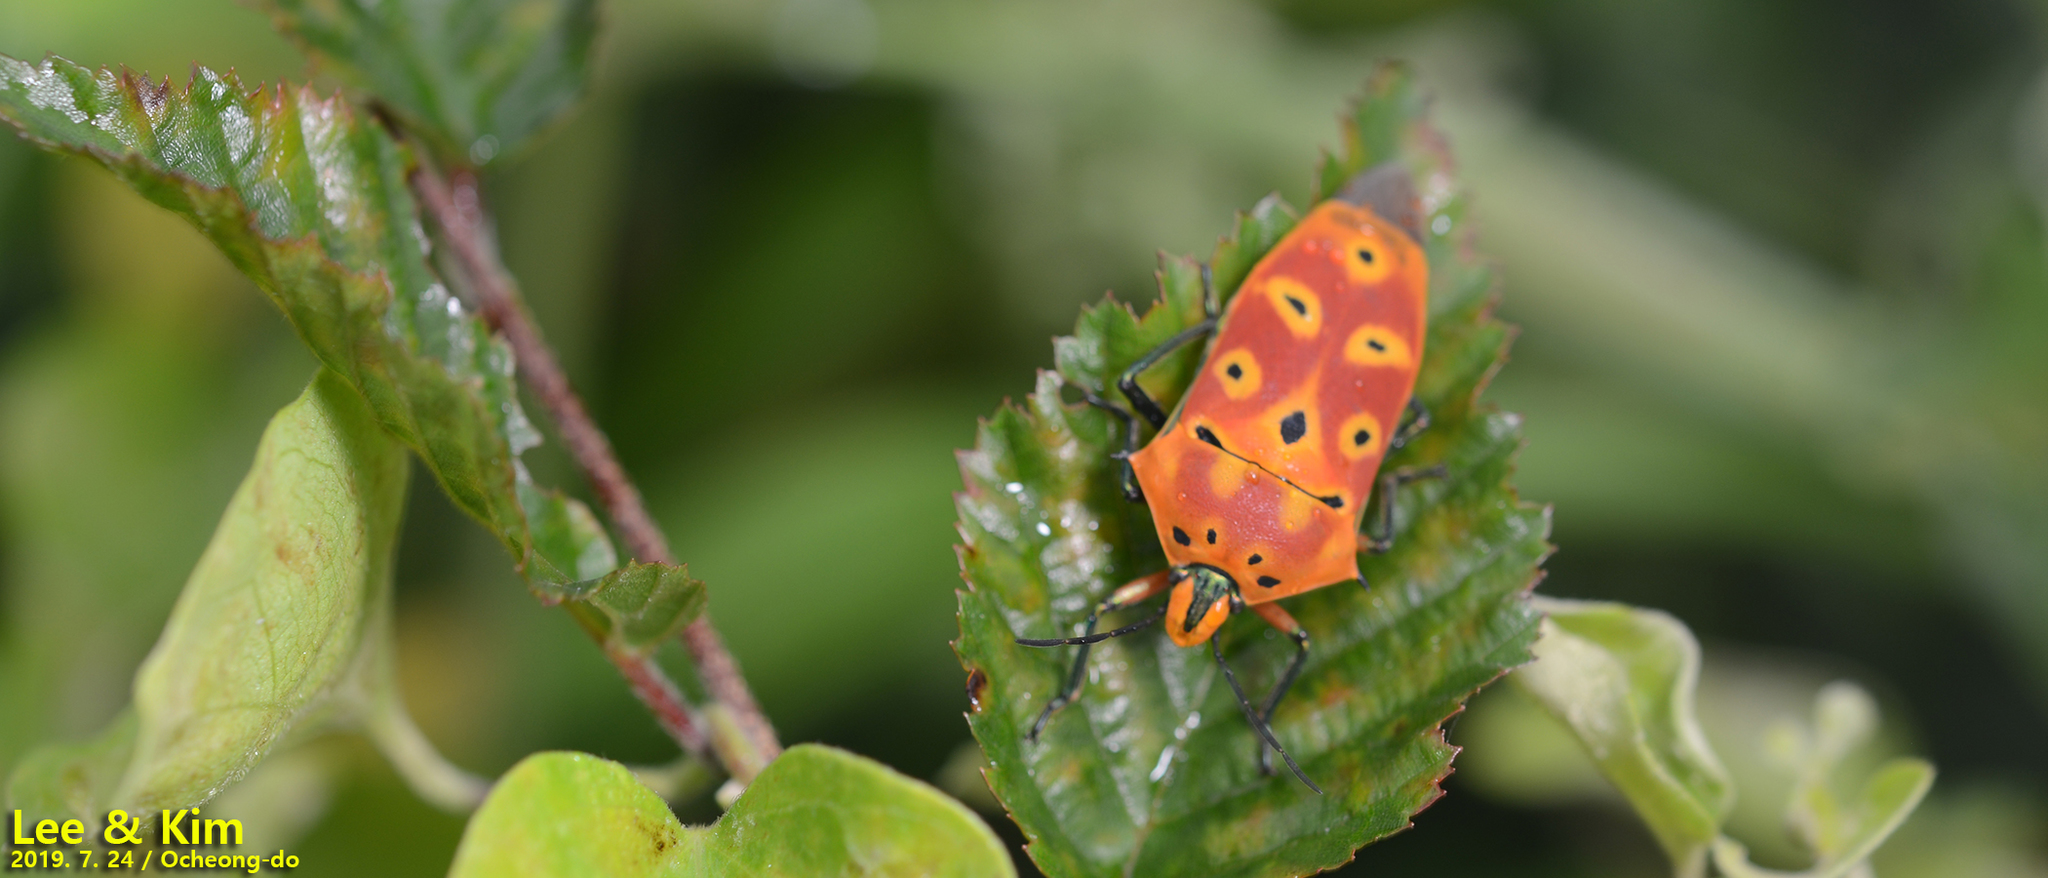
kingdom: Animalia
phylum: Arthropoda
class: Insecta
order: Hemiptera
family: Scutelleridae
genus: Cantao
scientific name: Cantao ocellatus
